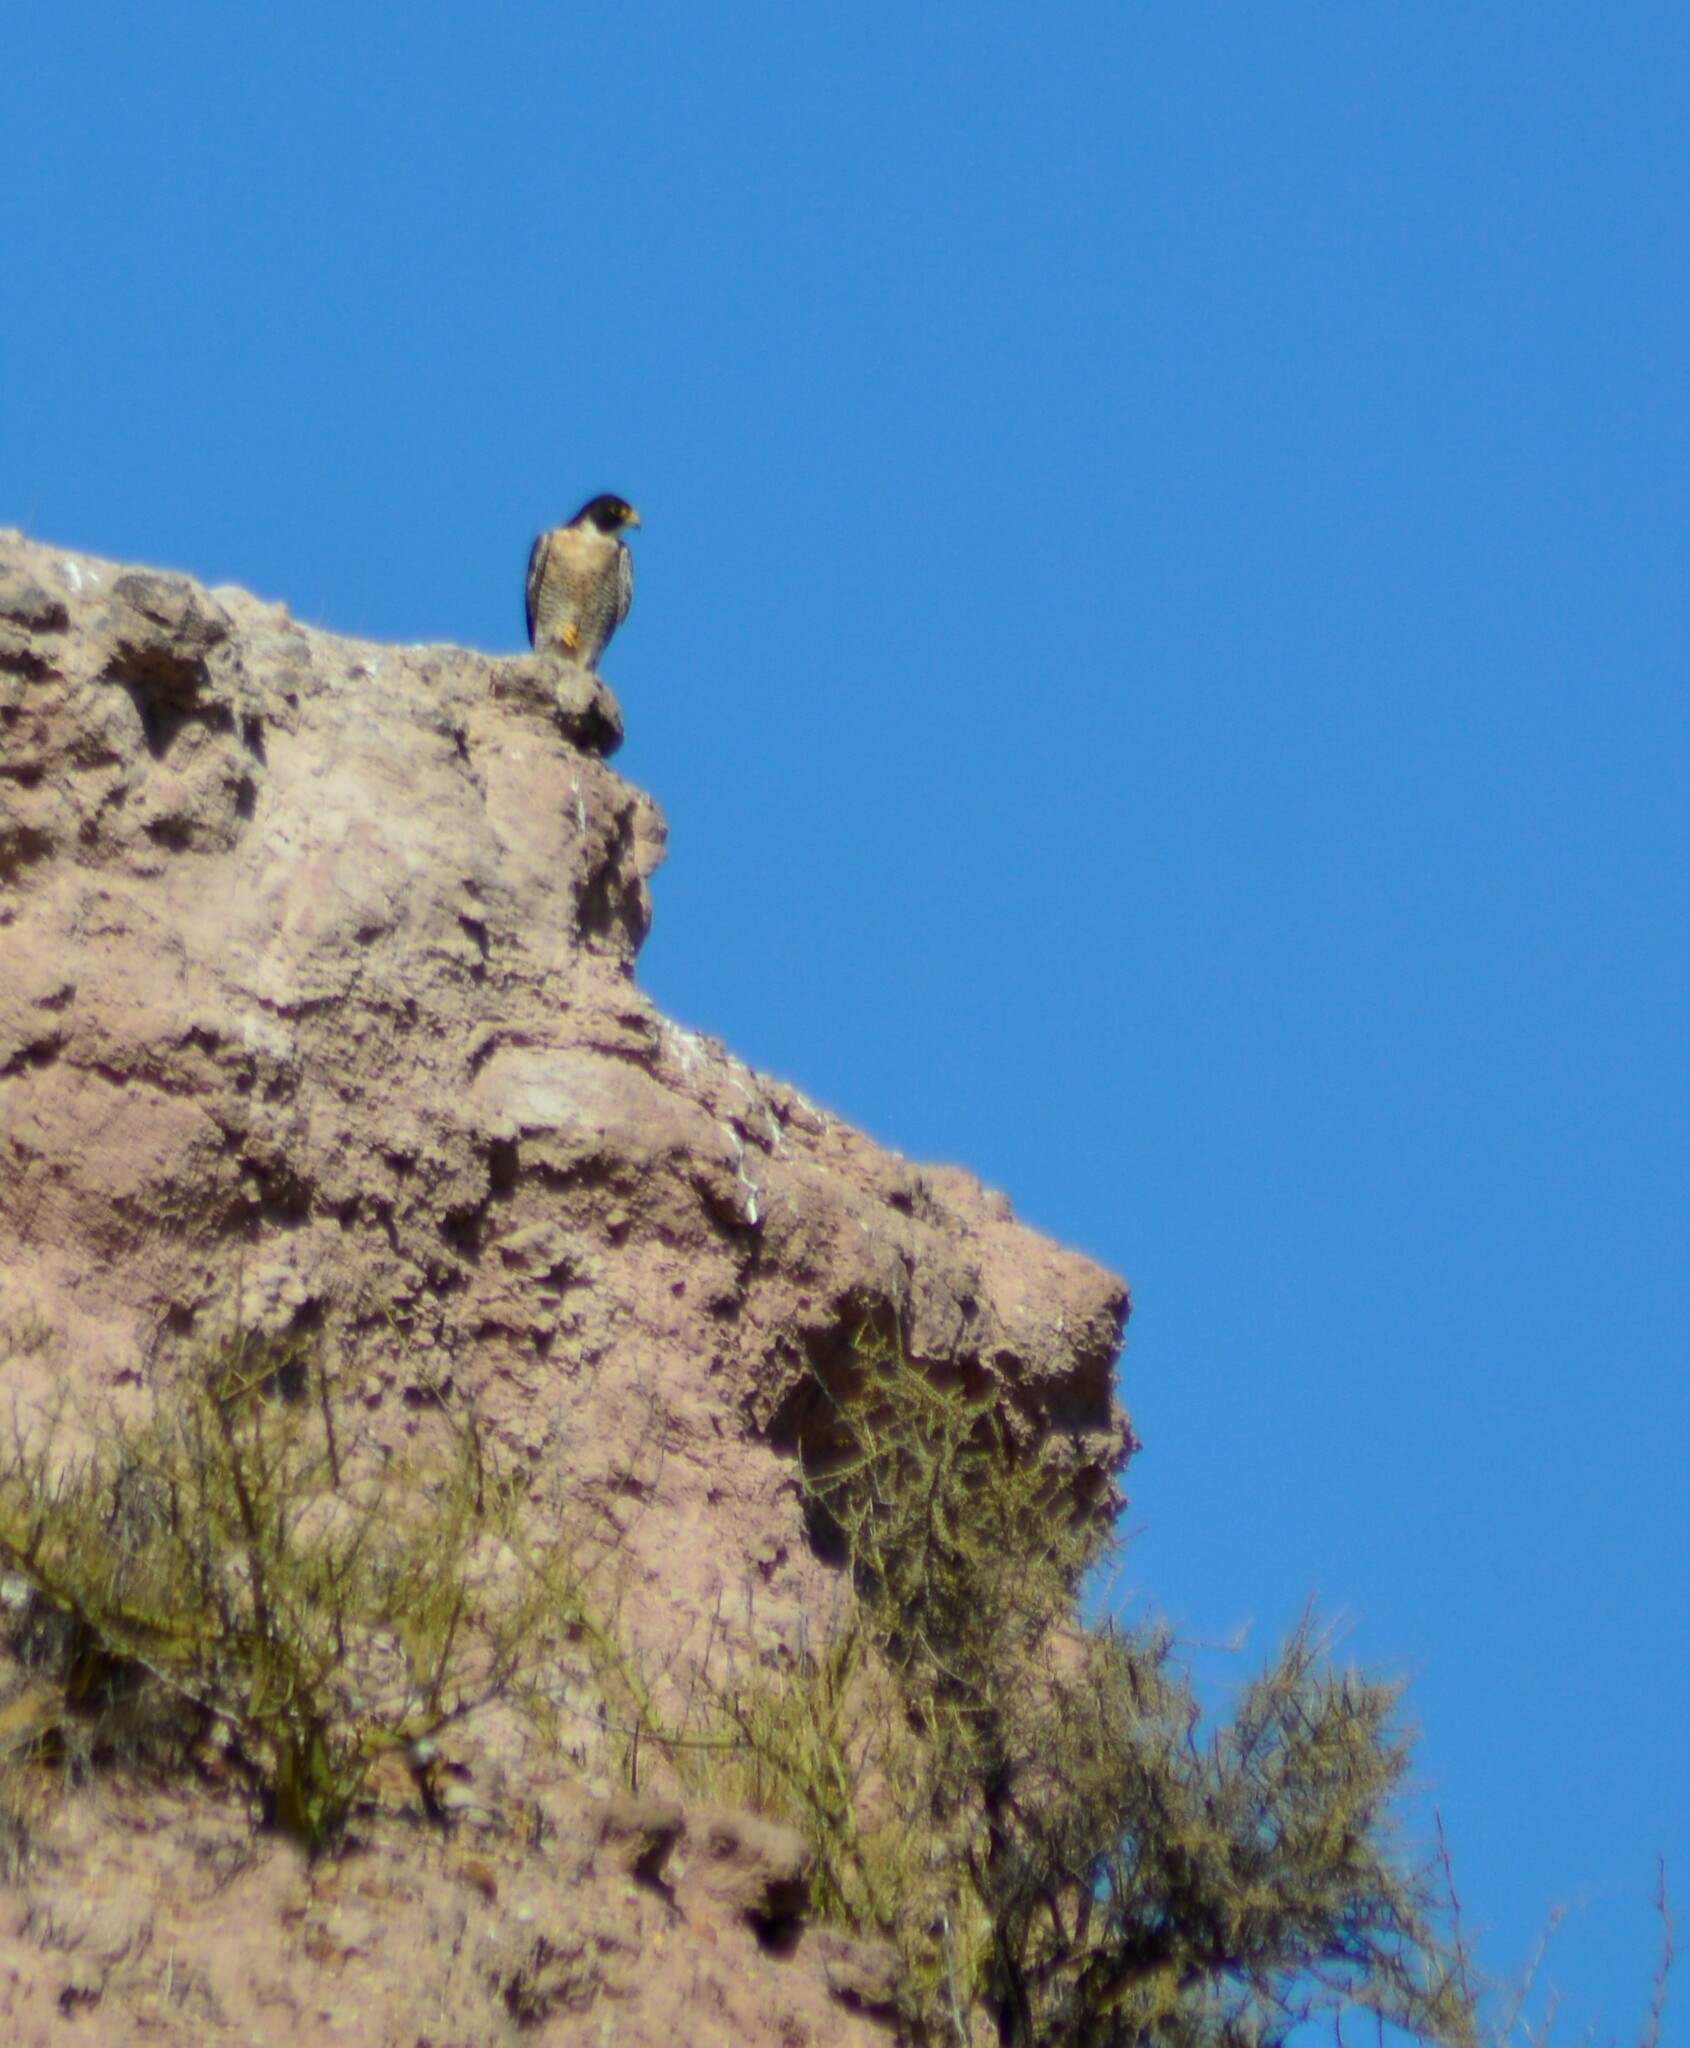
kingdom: Animalia
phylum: Chordata
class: Aves
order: Falconiformes
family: Falconidae
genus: Falco
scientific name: Falco peregrinus
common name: Peregrine falcon
